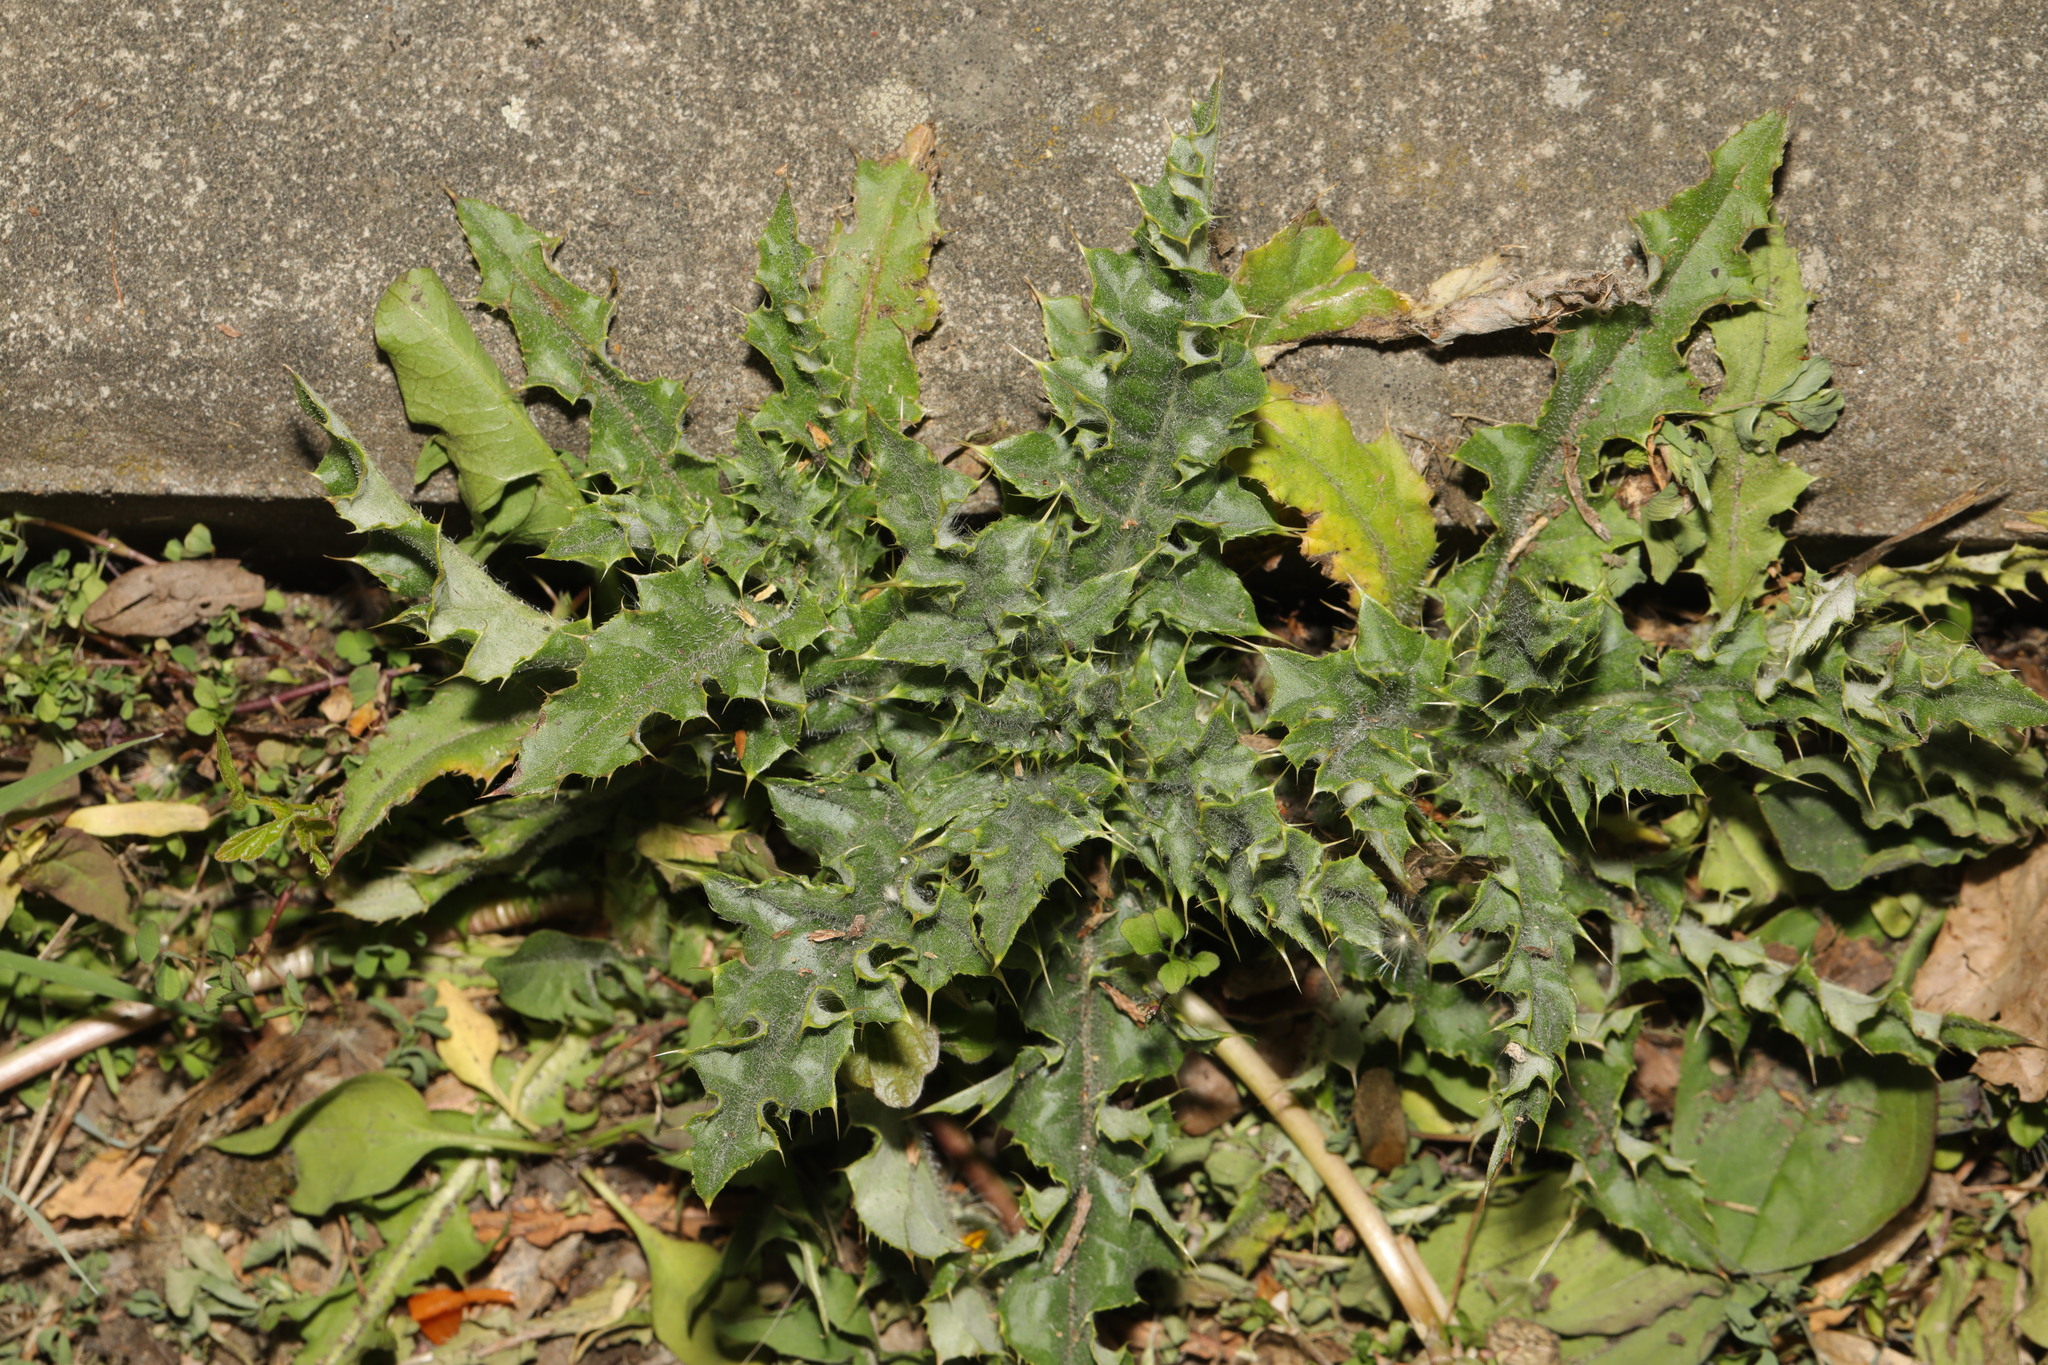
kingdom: Plantae
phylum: Tracheophyta
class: Magnoliopsida
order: Asterales
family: Asteraceae
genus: Cirsium
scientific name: Cirsium arvense
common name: Creeping thistle
